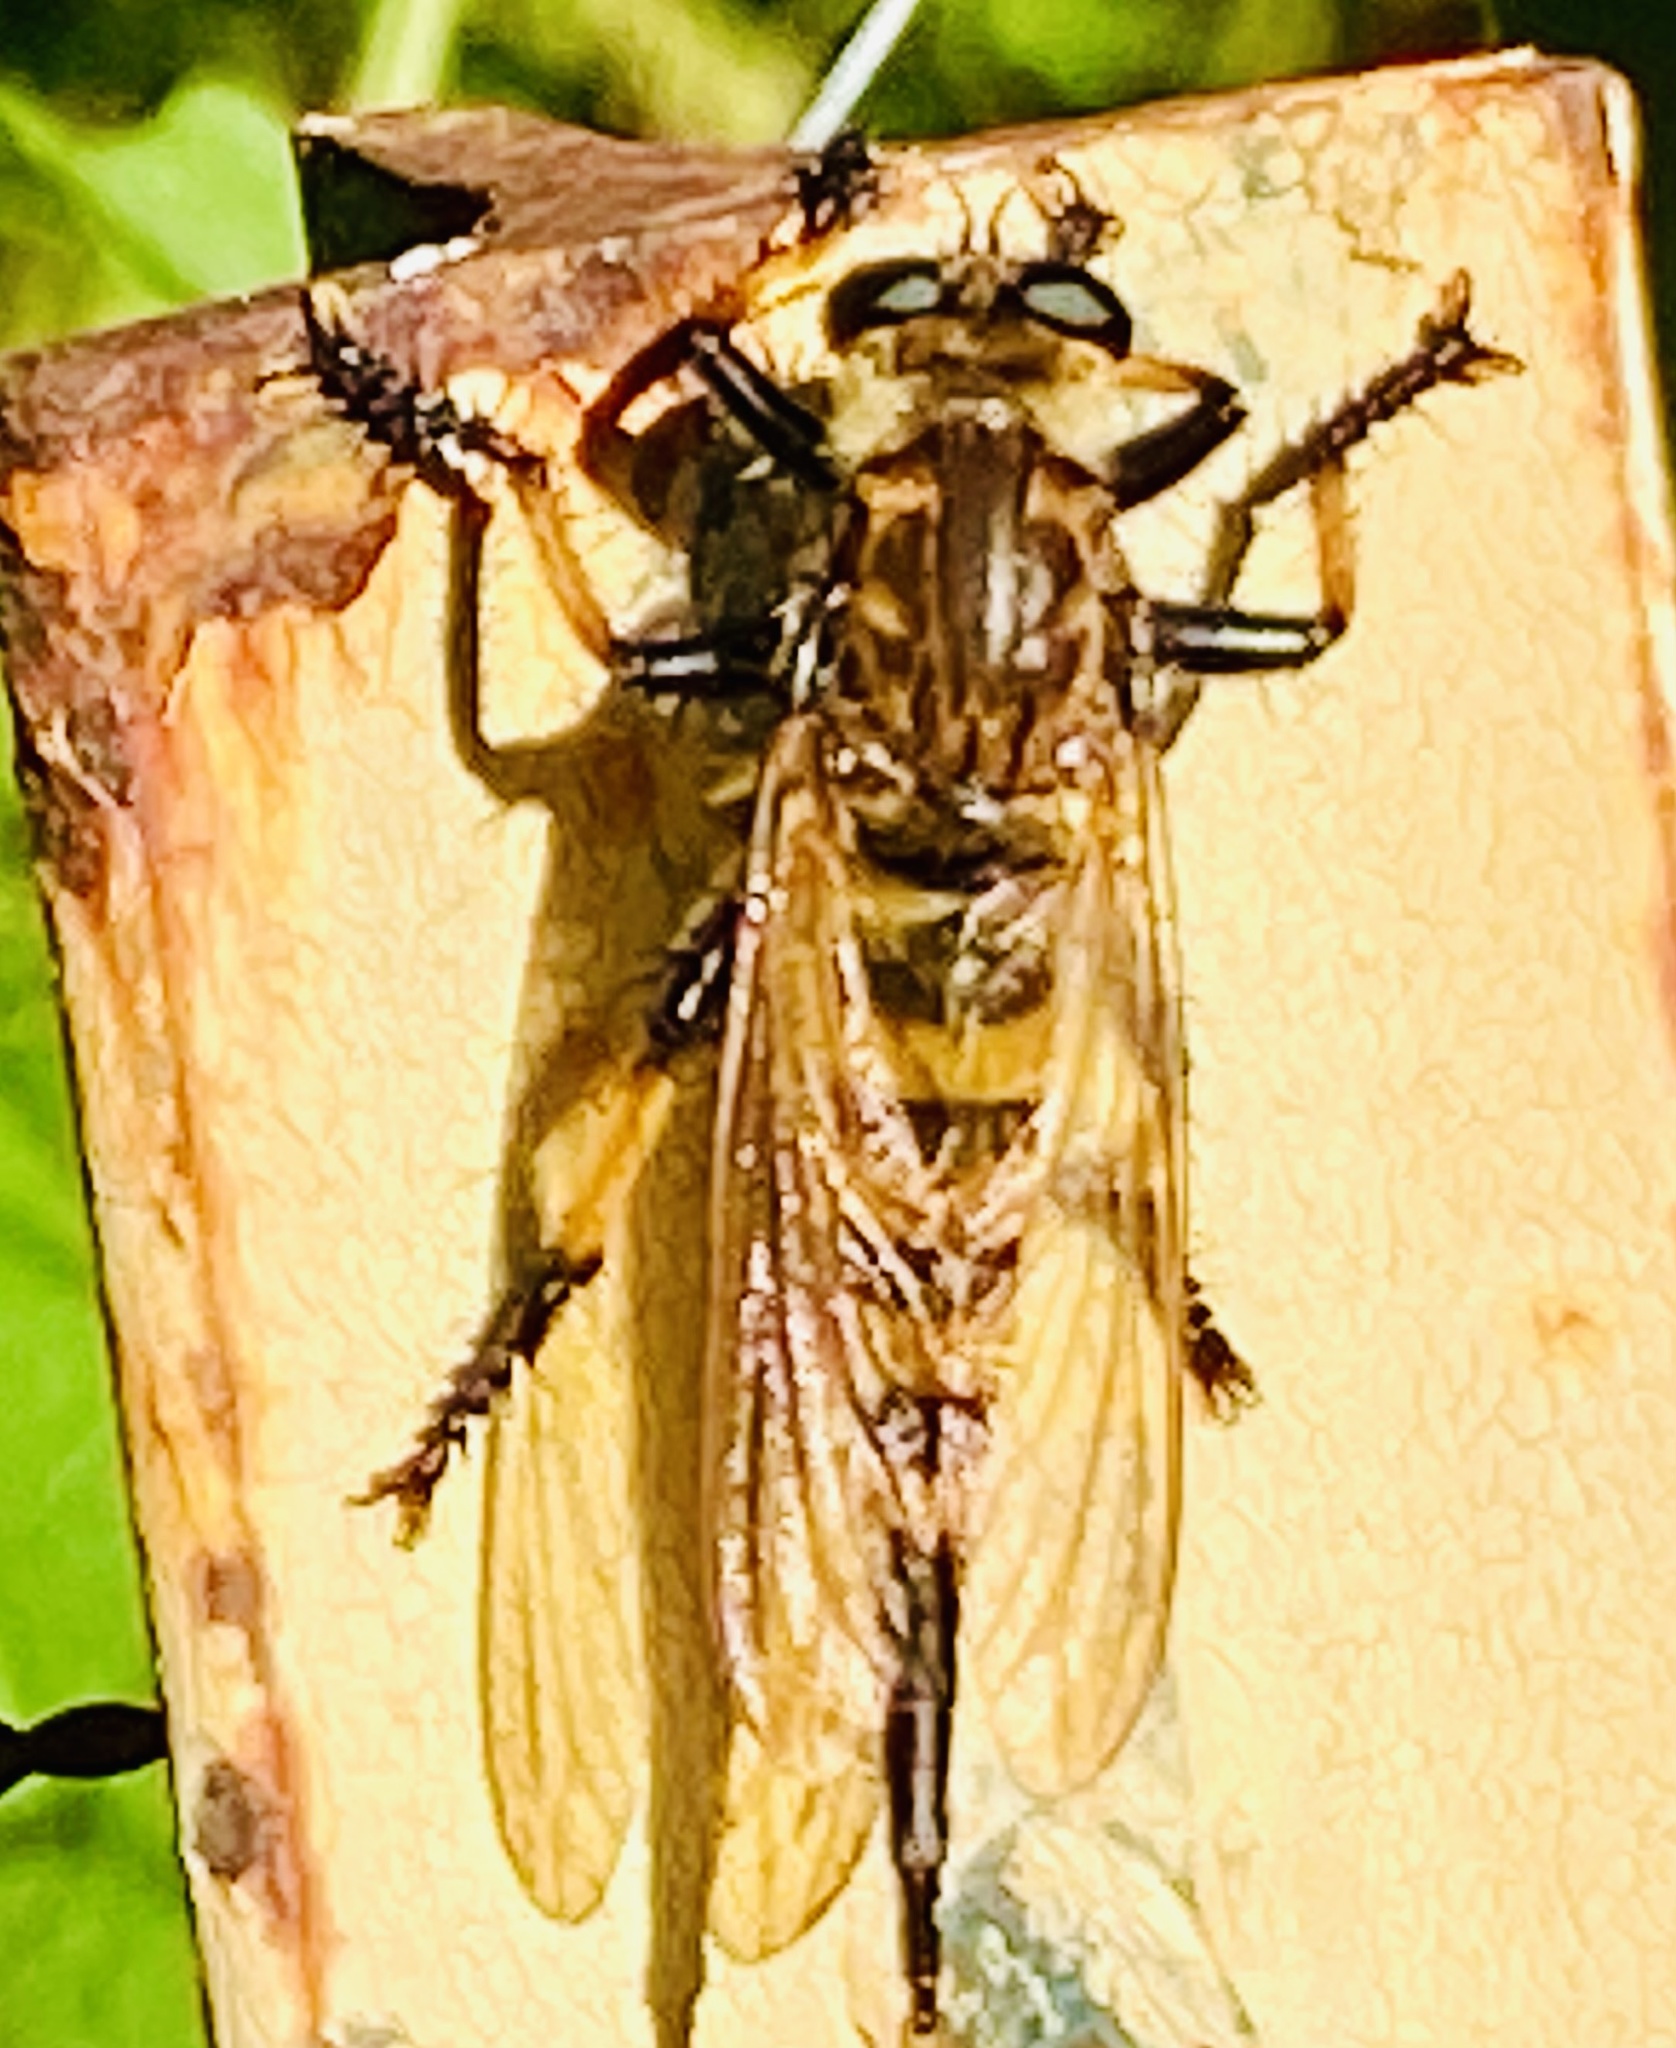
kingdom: Animalia
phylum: Arthropoda
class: Insecta
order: Diptera
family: Asilidae
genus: Promachus
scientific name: Promachus rufipes
